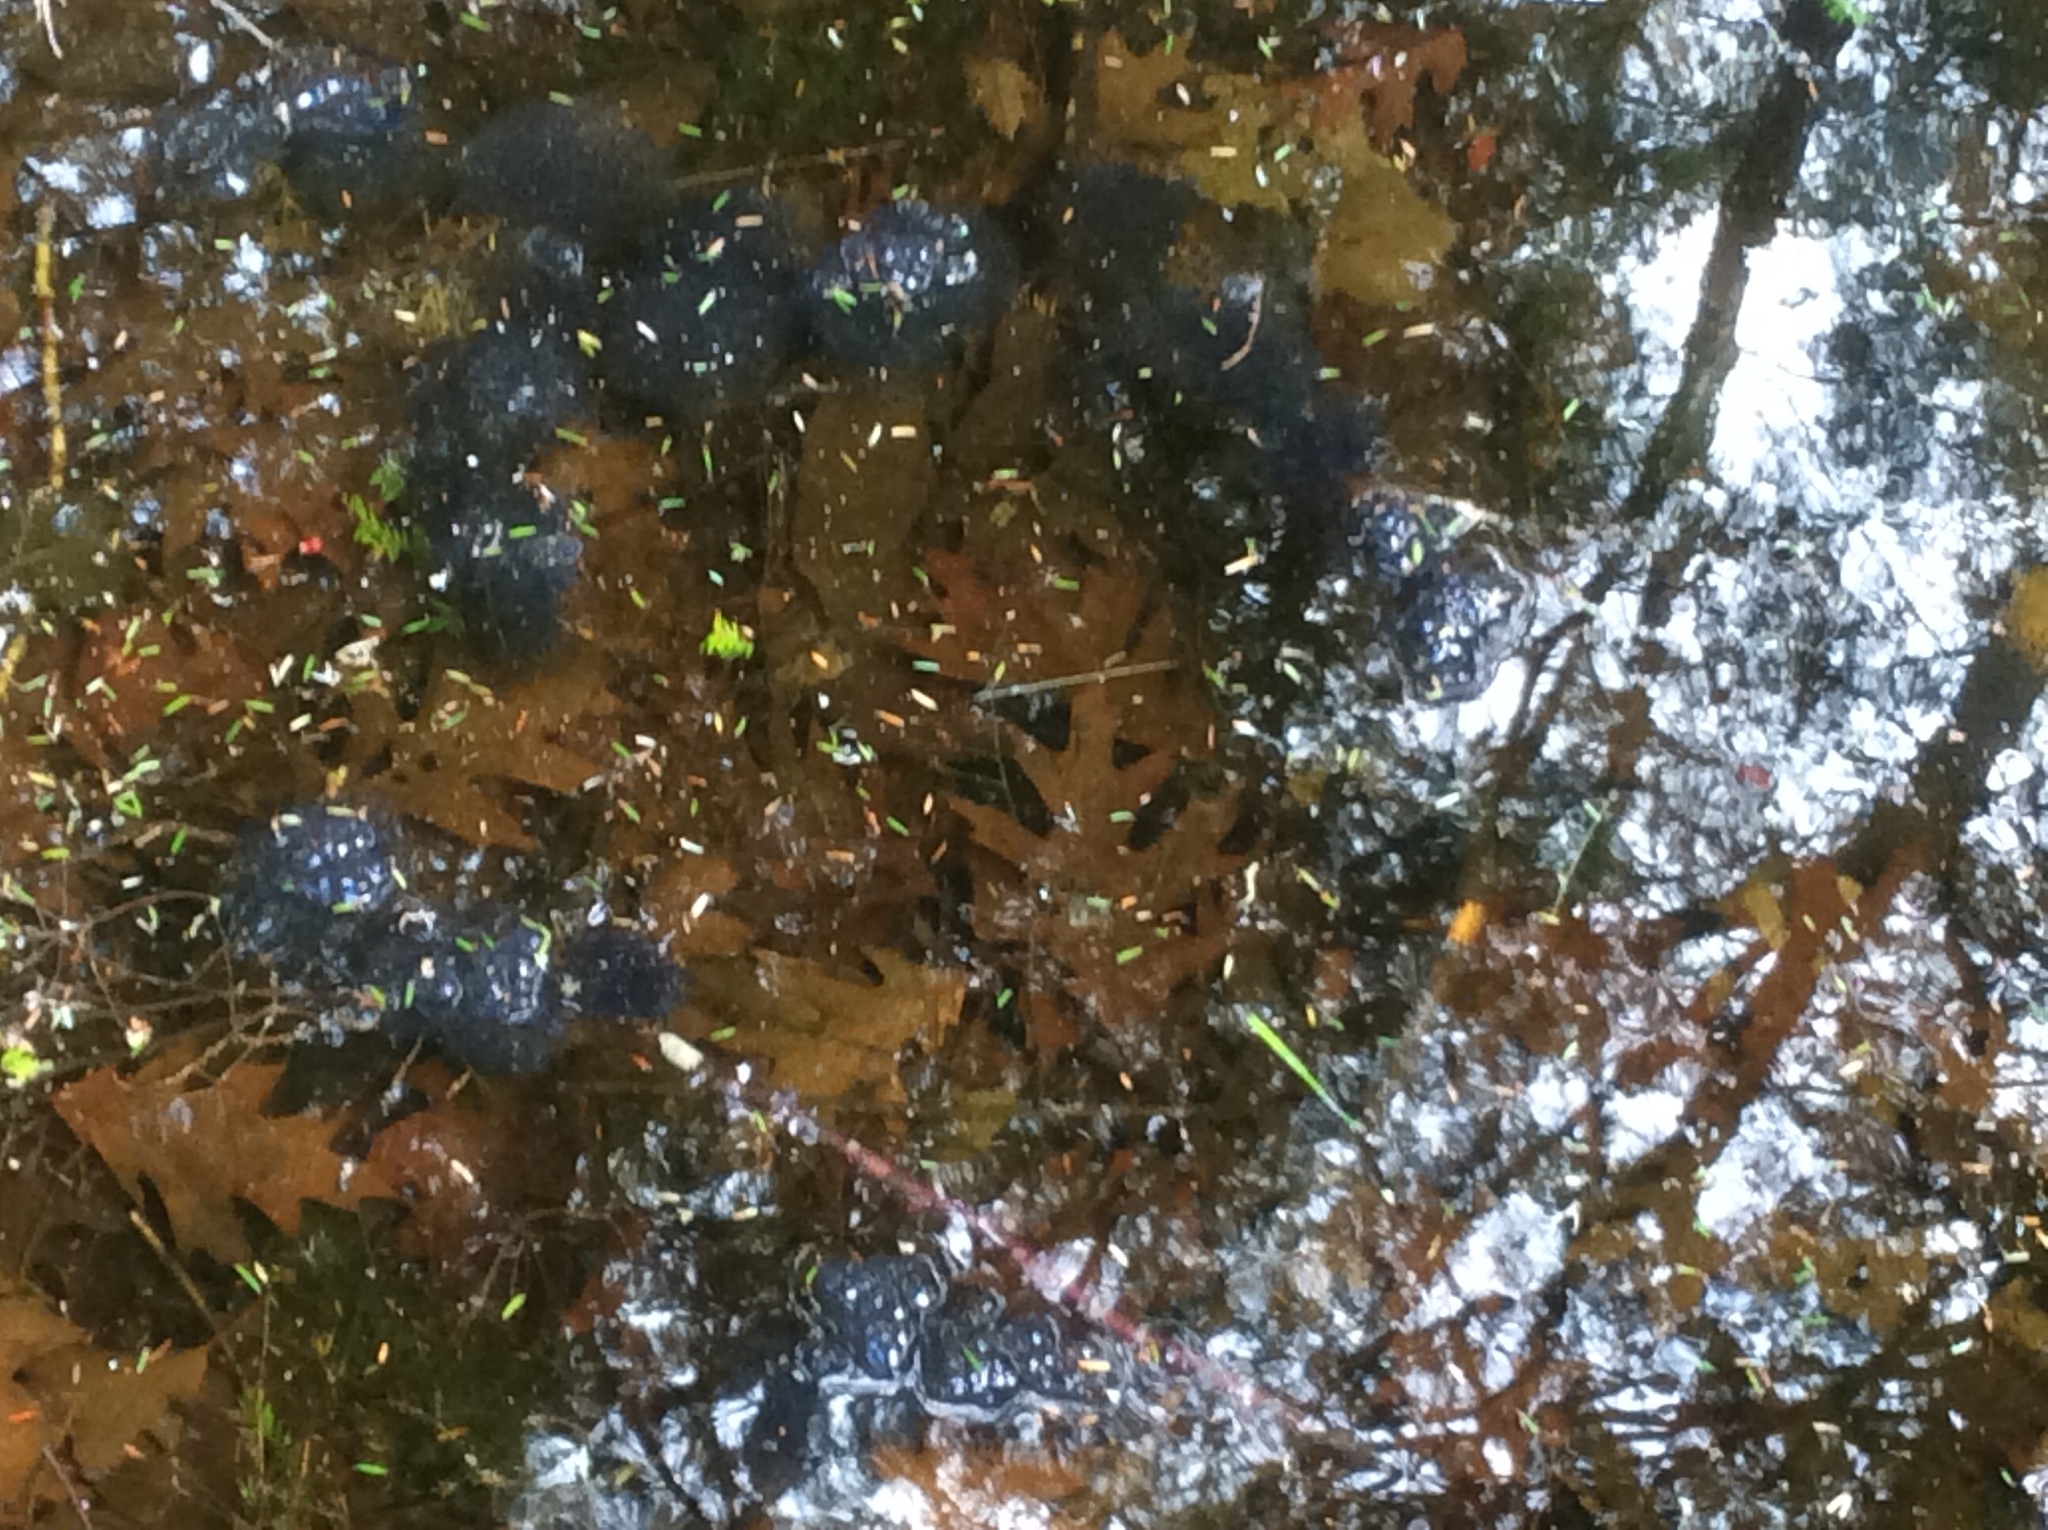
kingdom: Animalia
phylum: Chordata
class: Amphibia
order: Anura
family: Ranidae
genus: Lithobates
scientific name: Lithobates sylvaticus
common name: Wood frog
